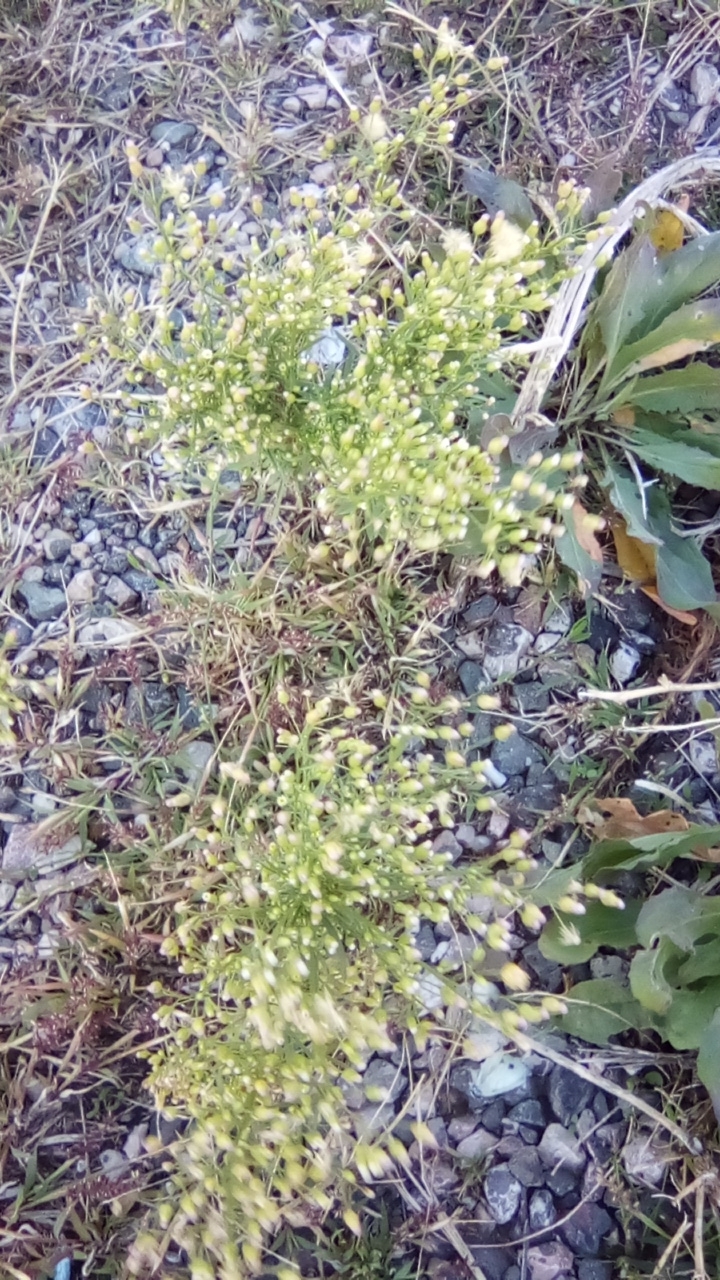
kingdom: Plantae
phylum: Tracheophyta
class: Magnoliopsida
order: Asterales
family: Asteraceae
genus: Erigeron
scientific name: Erigeron canadensis
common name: Canadian fleabane
